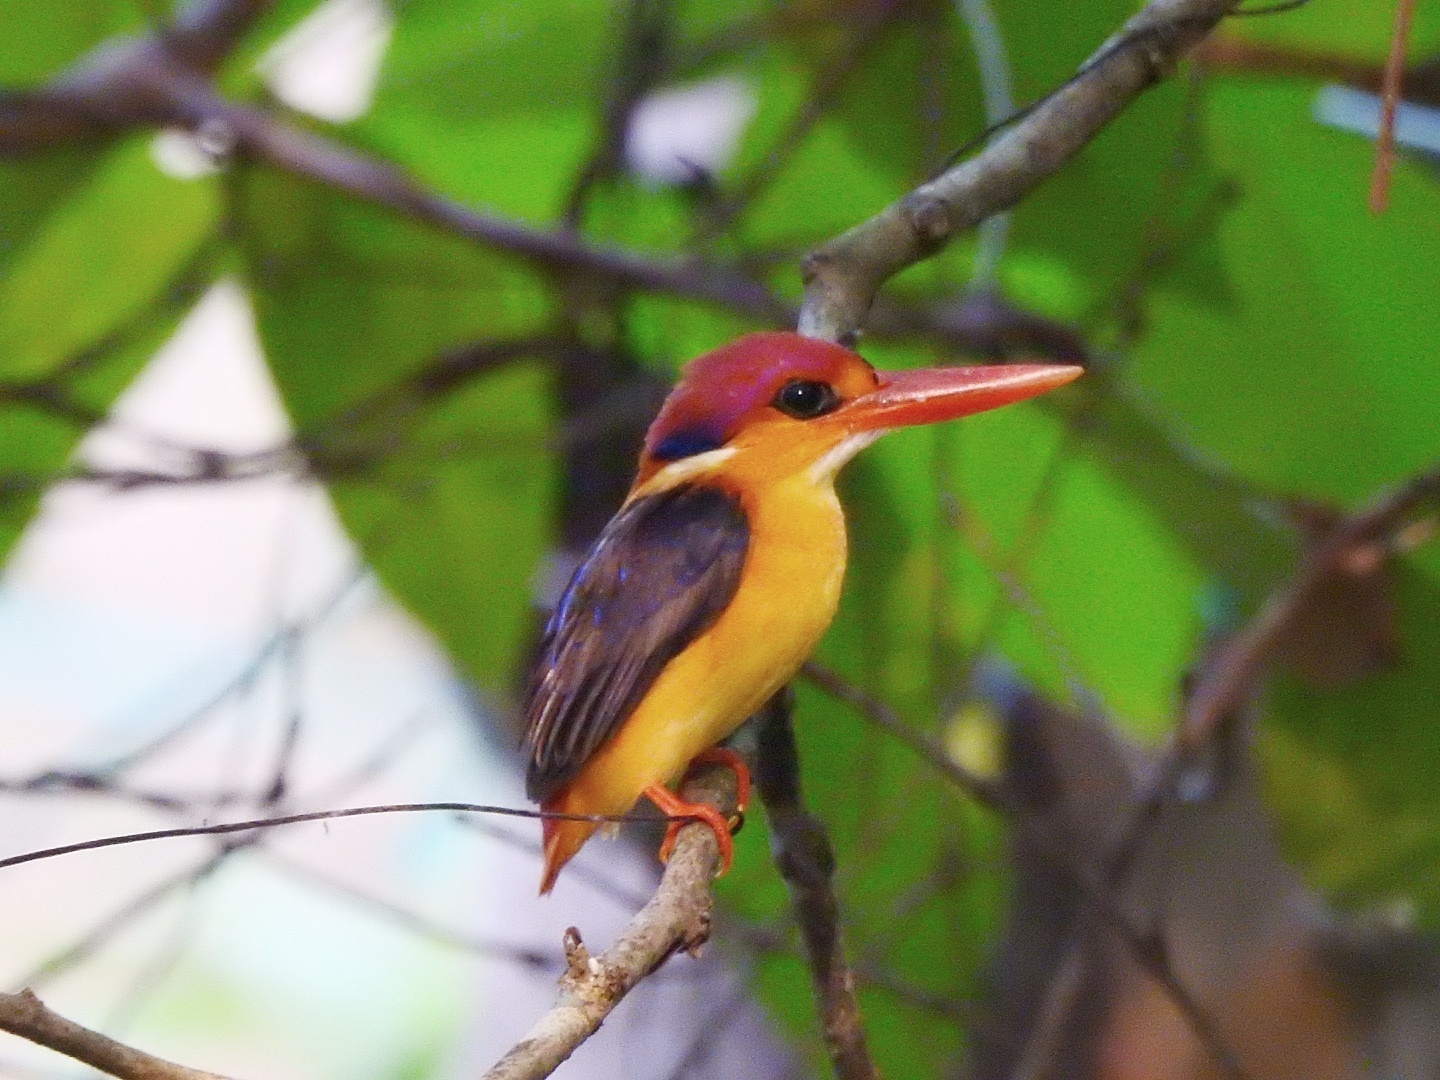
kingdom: Animalia
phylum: Chordata
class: Aves
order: Coraciiformes
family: Alcedinidae
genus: Ceyx
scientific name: Ceyx erithaca
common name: Oriental dwarf kingfisher
